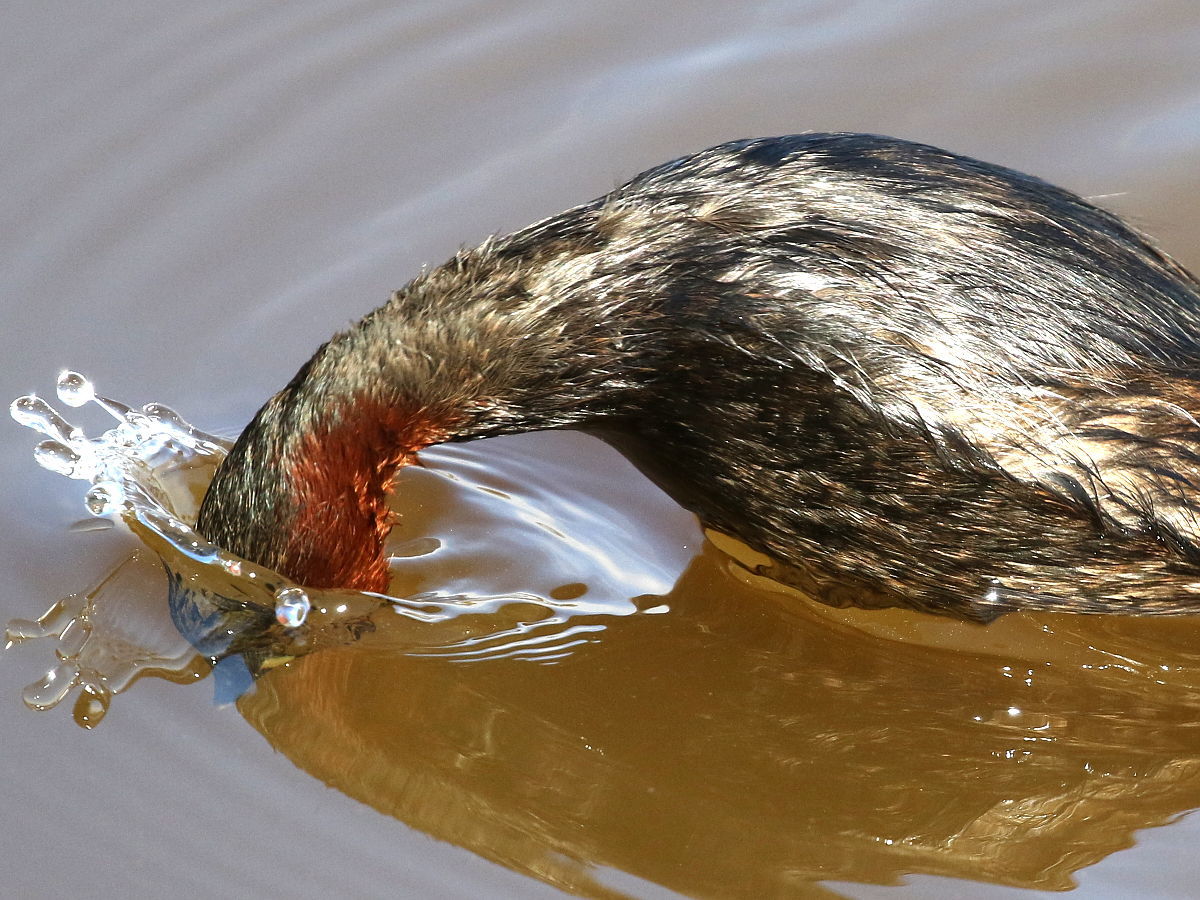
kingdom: Animalia
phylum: Chordata
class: Aves
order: Podicipediformes
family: Podicipedidae
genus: Tachybaptus
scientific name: Tachybaptus ruficollis
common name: Little grebe
